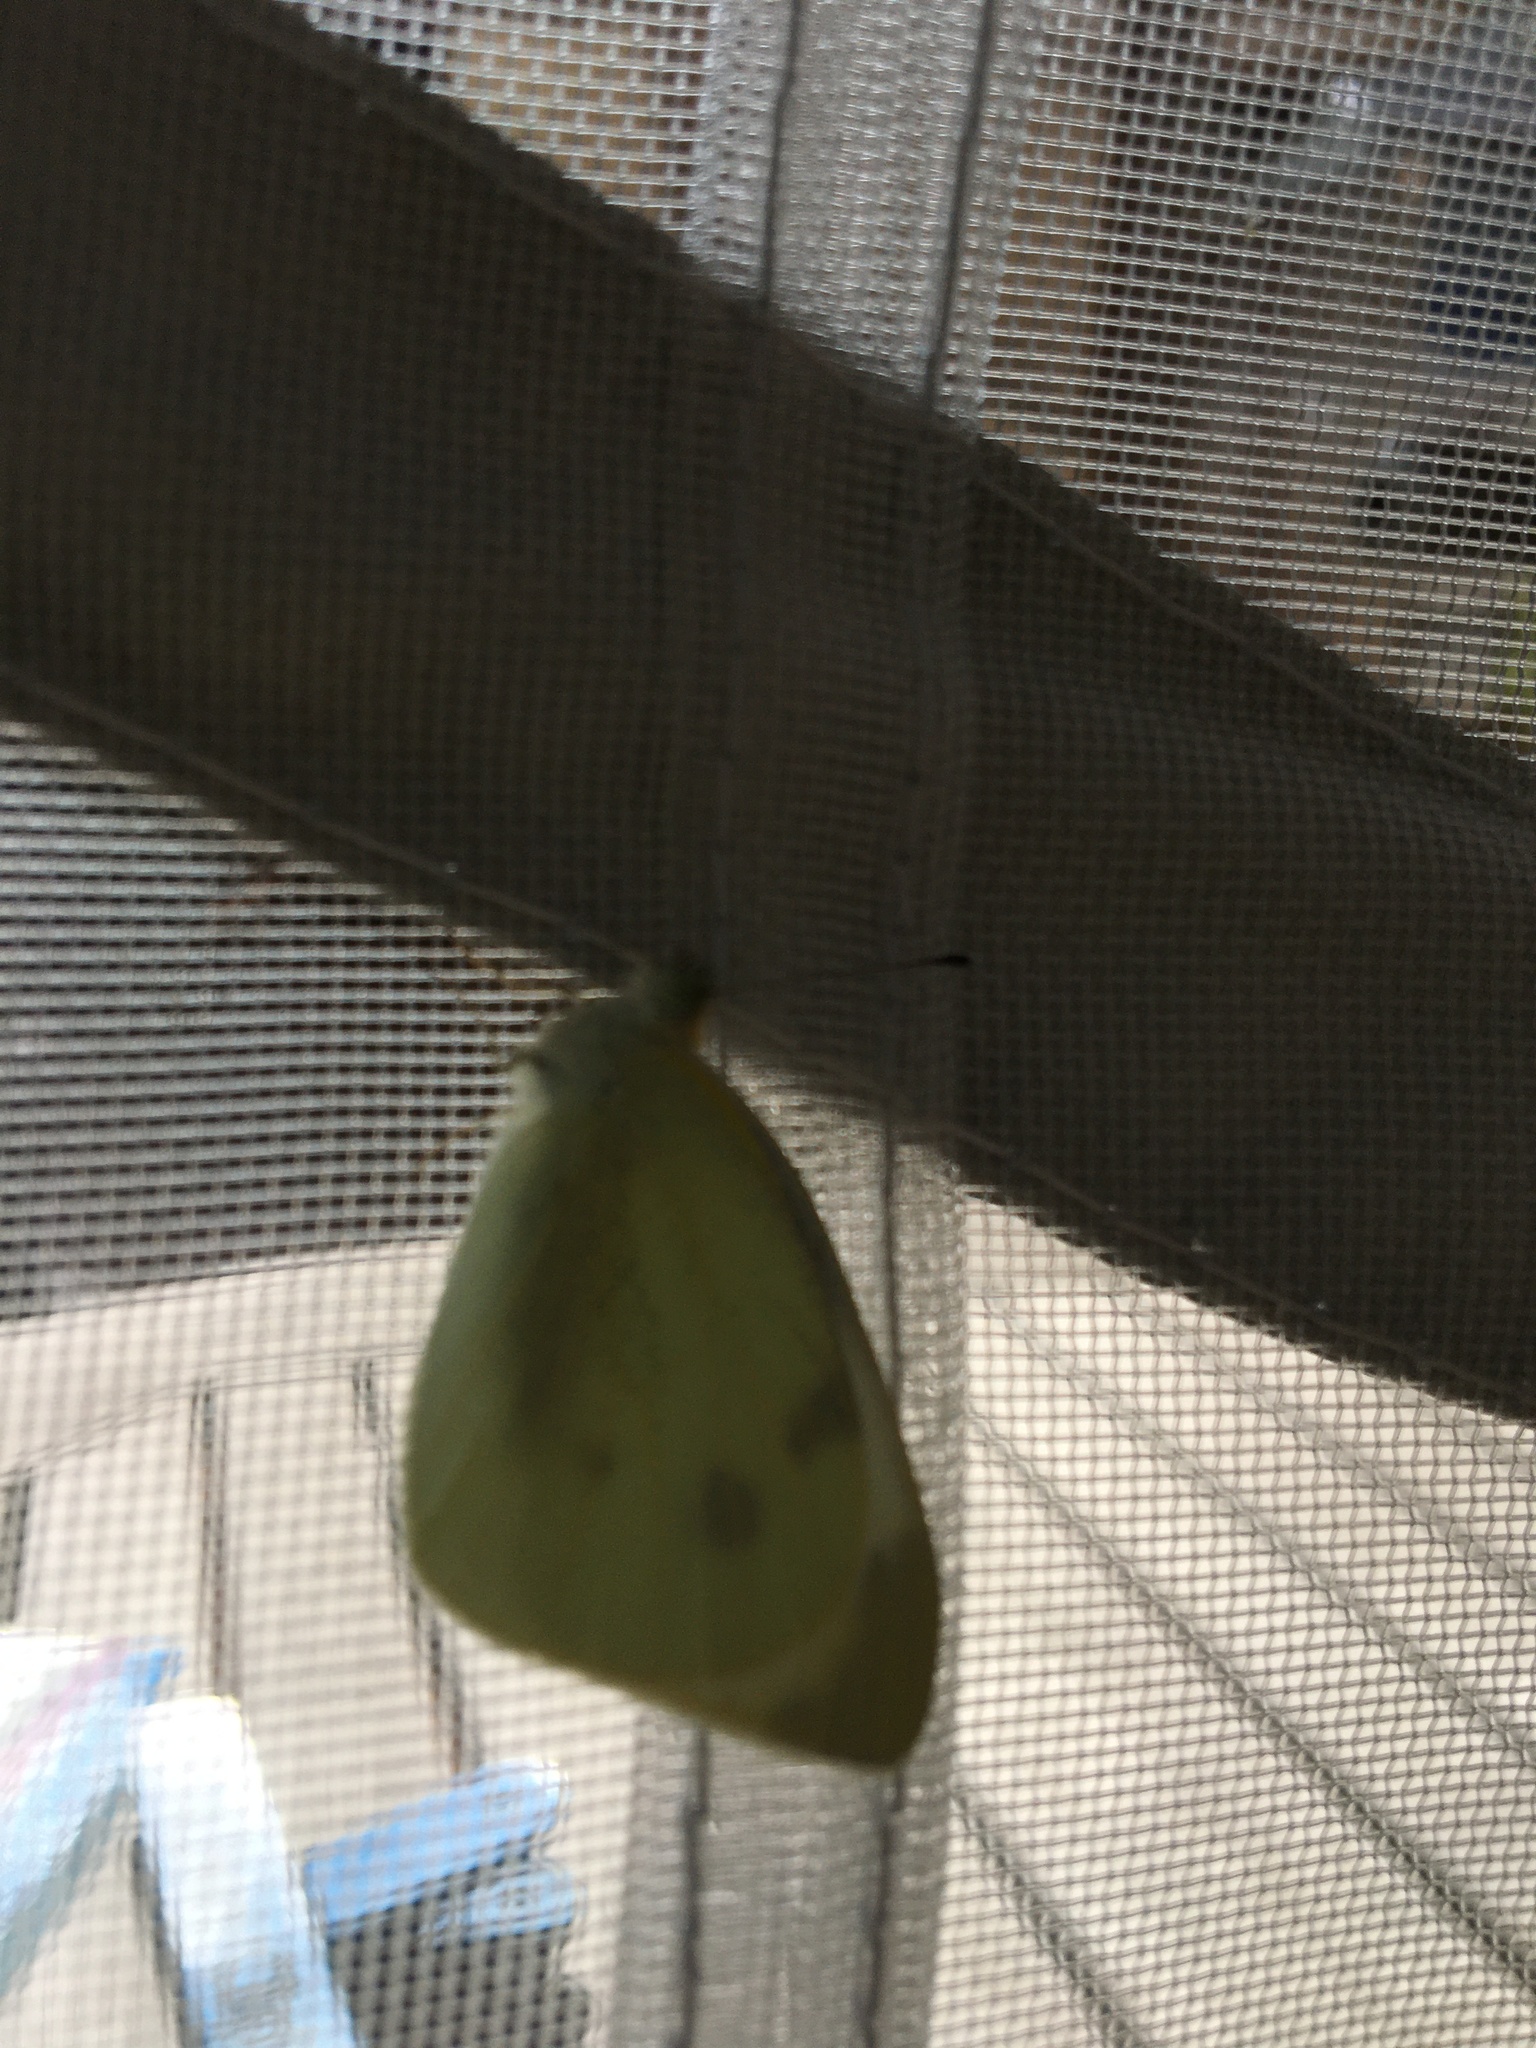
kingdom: Animalia
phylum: Arthropoda
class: Insecta
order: Lepidoptera
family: Pieridae
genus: Pieris
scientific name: Pieris rapae
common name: Small white
